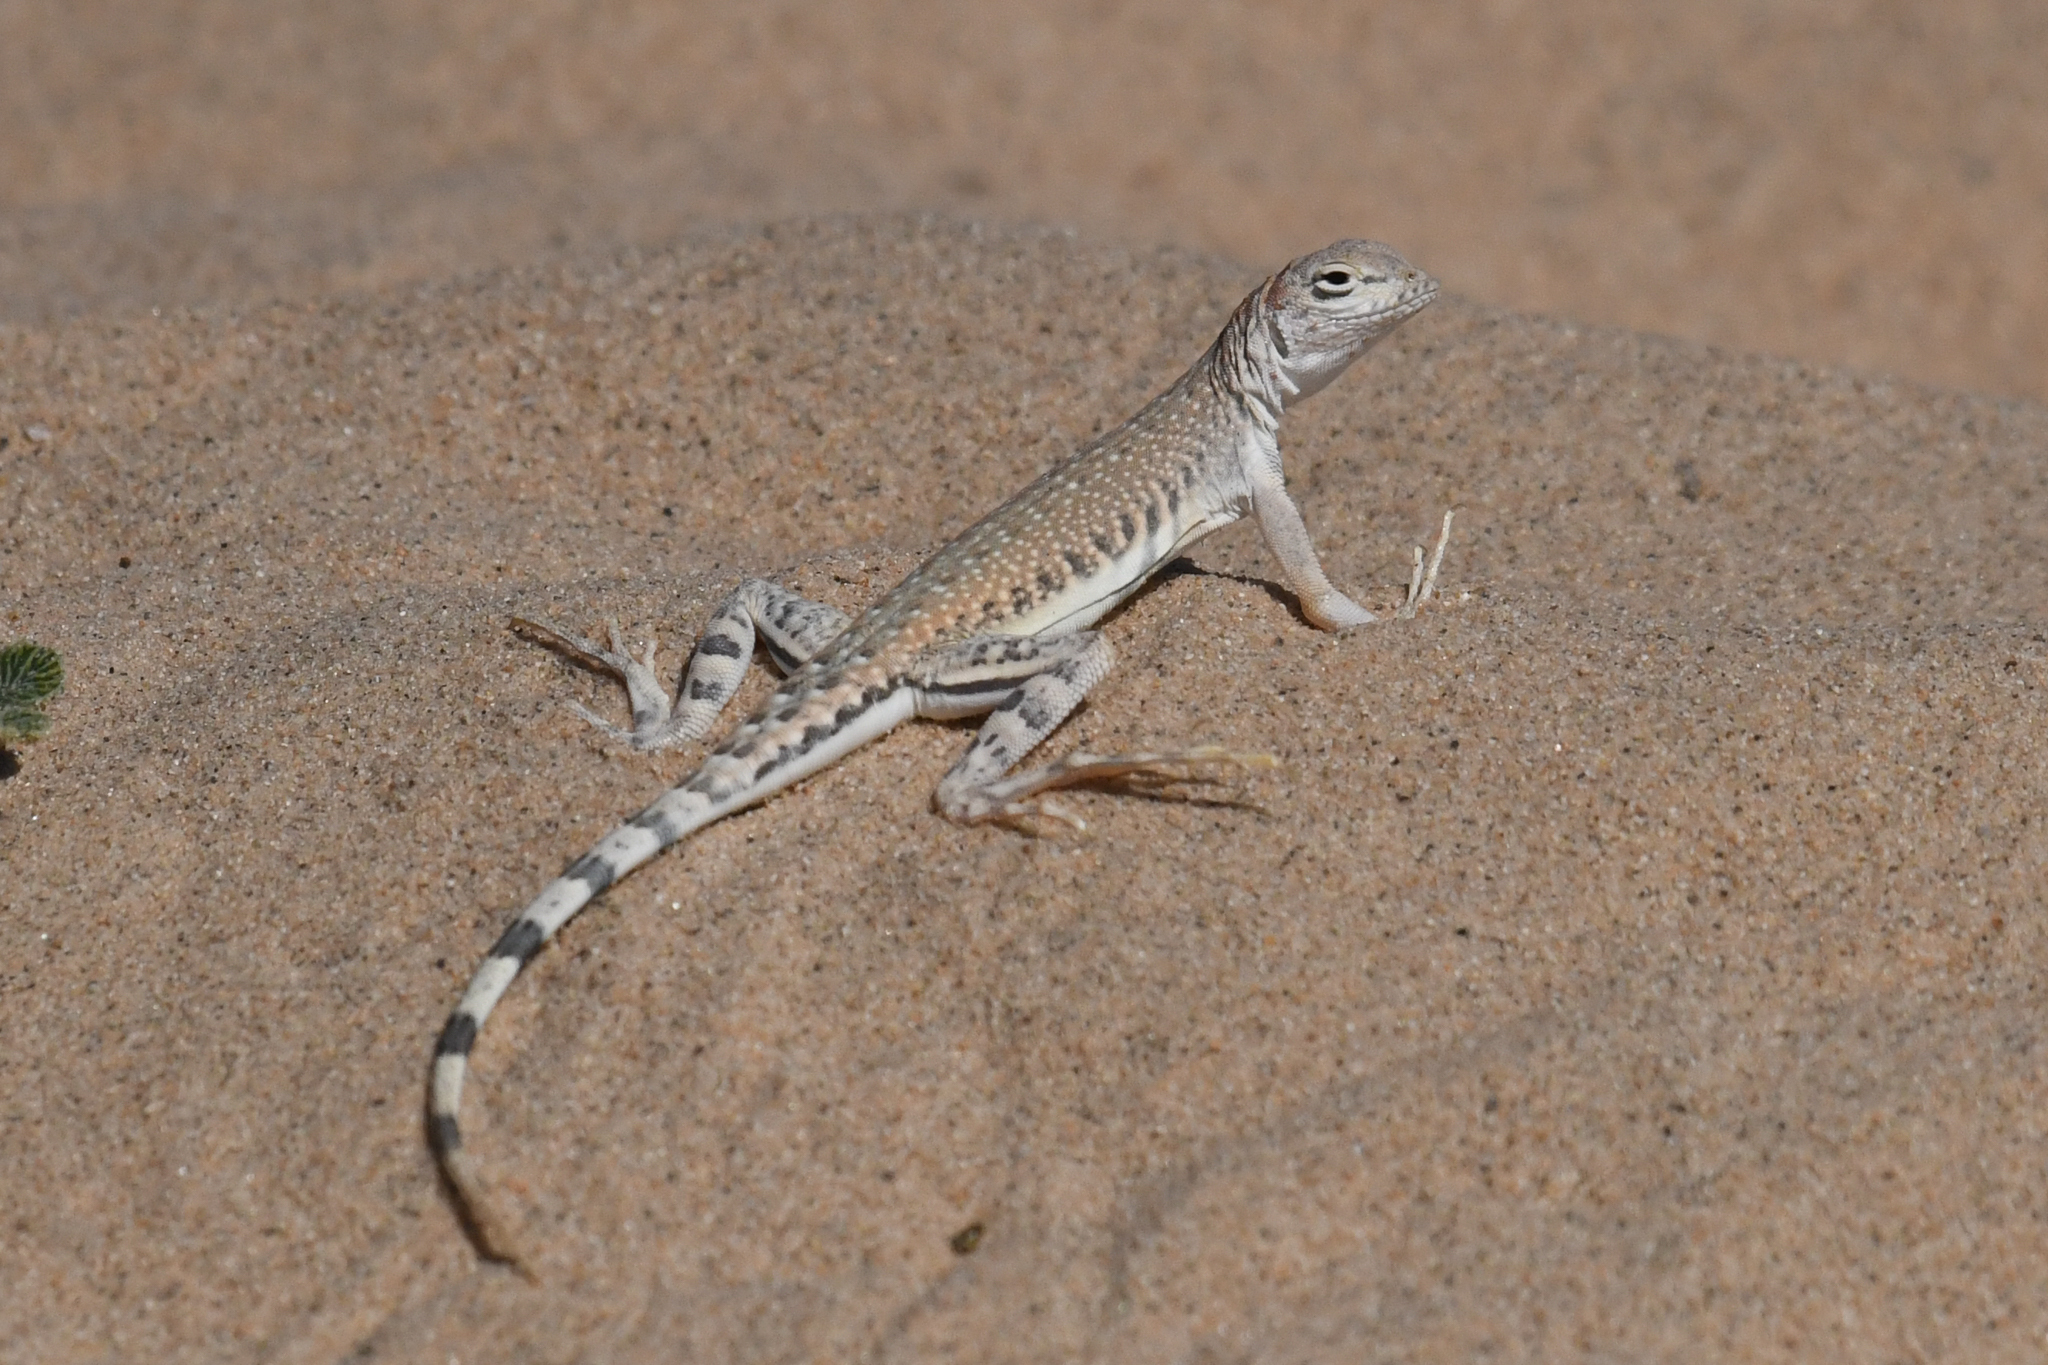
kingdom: Animalia
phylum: Chordata
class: Squamata
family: Phrynosomatidae
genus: Callisaurus
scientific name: Callisaurus draconoides
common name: Zebra-tailed lizard
